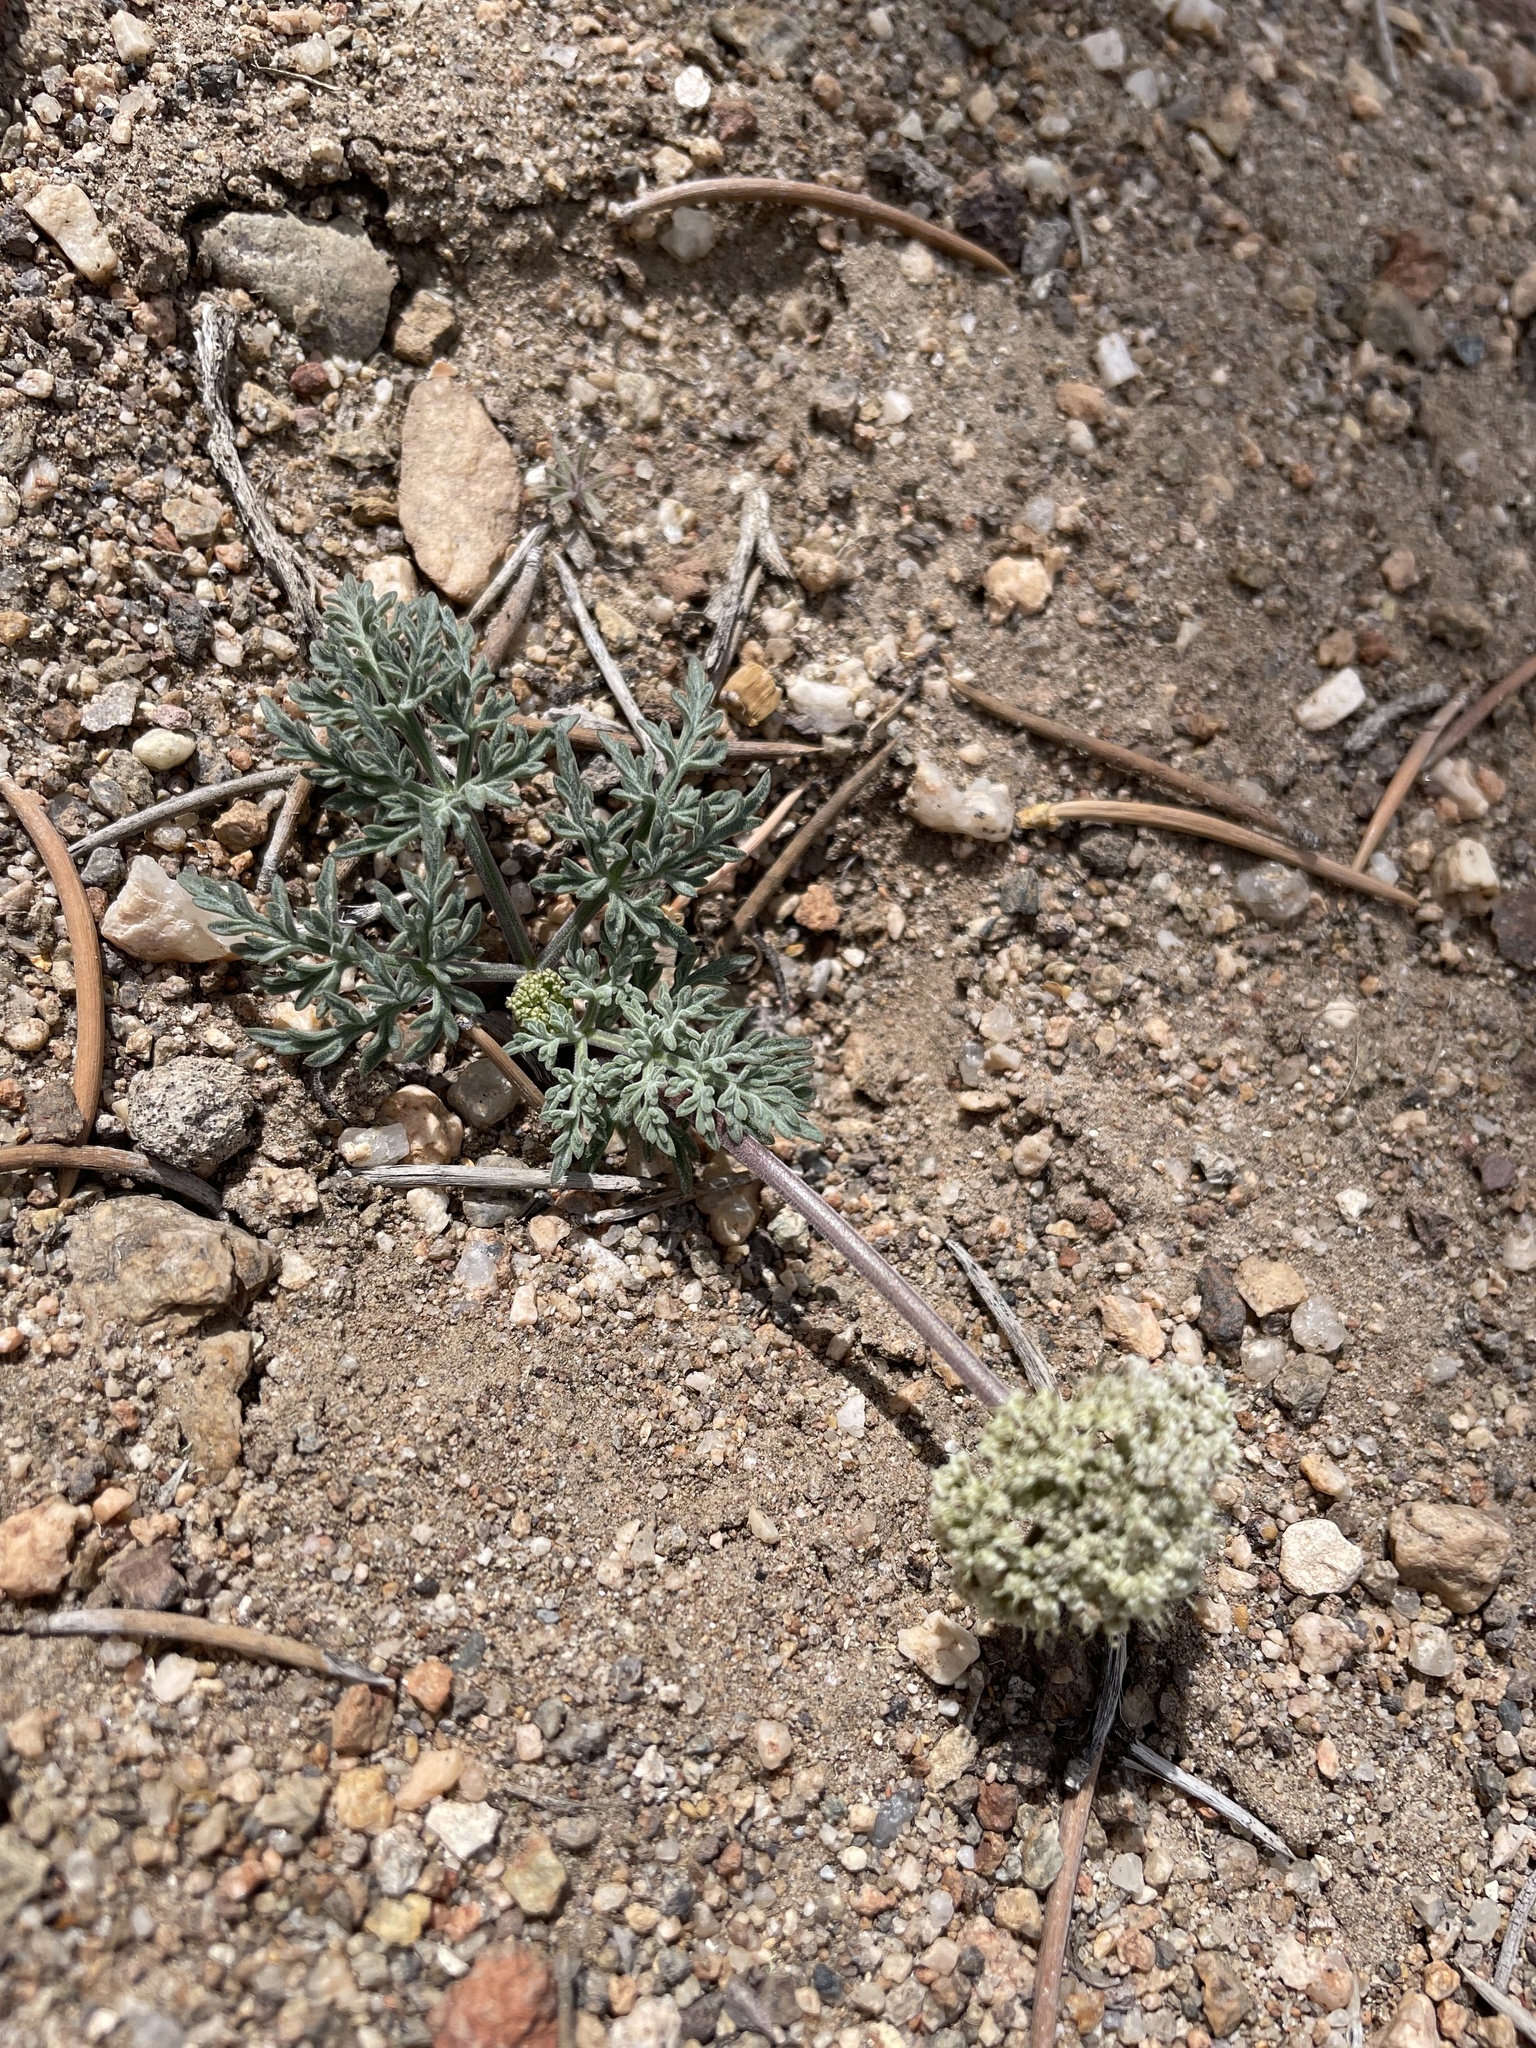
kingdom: Plantae
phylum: Tracheophyta
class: Magnoliopsida
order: Apiales
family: Apiaceae
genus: Lomatium
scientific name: Lomatium nevadense
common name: Nevada lomatium
